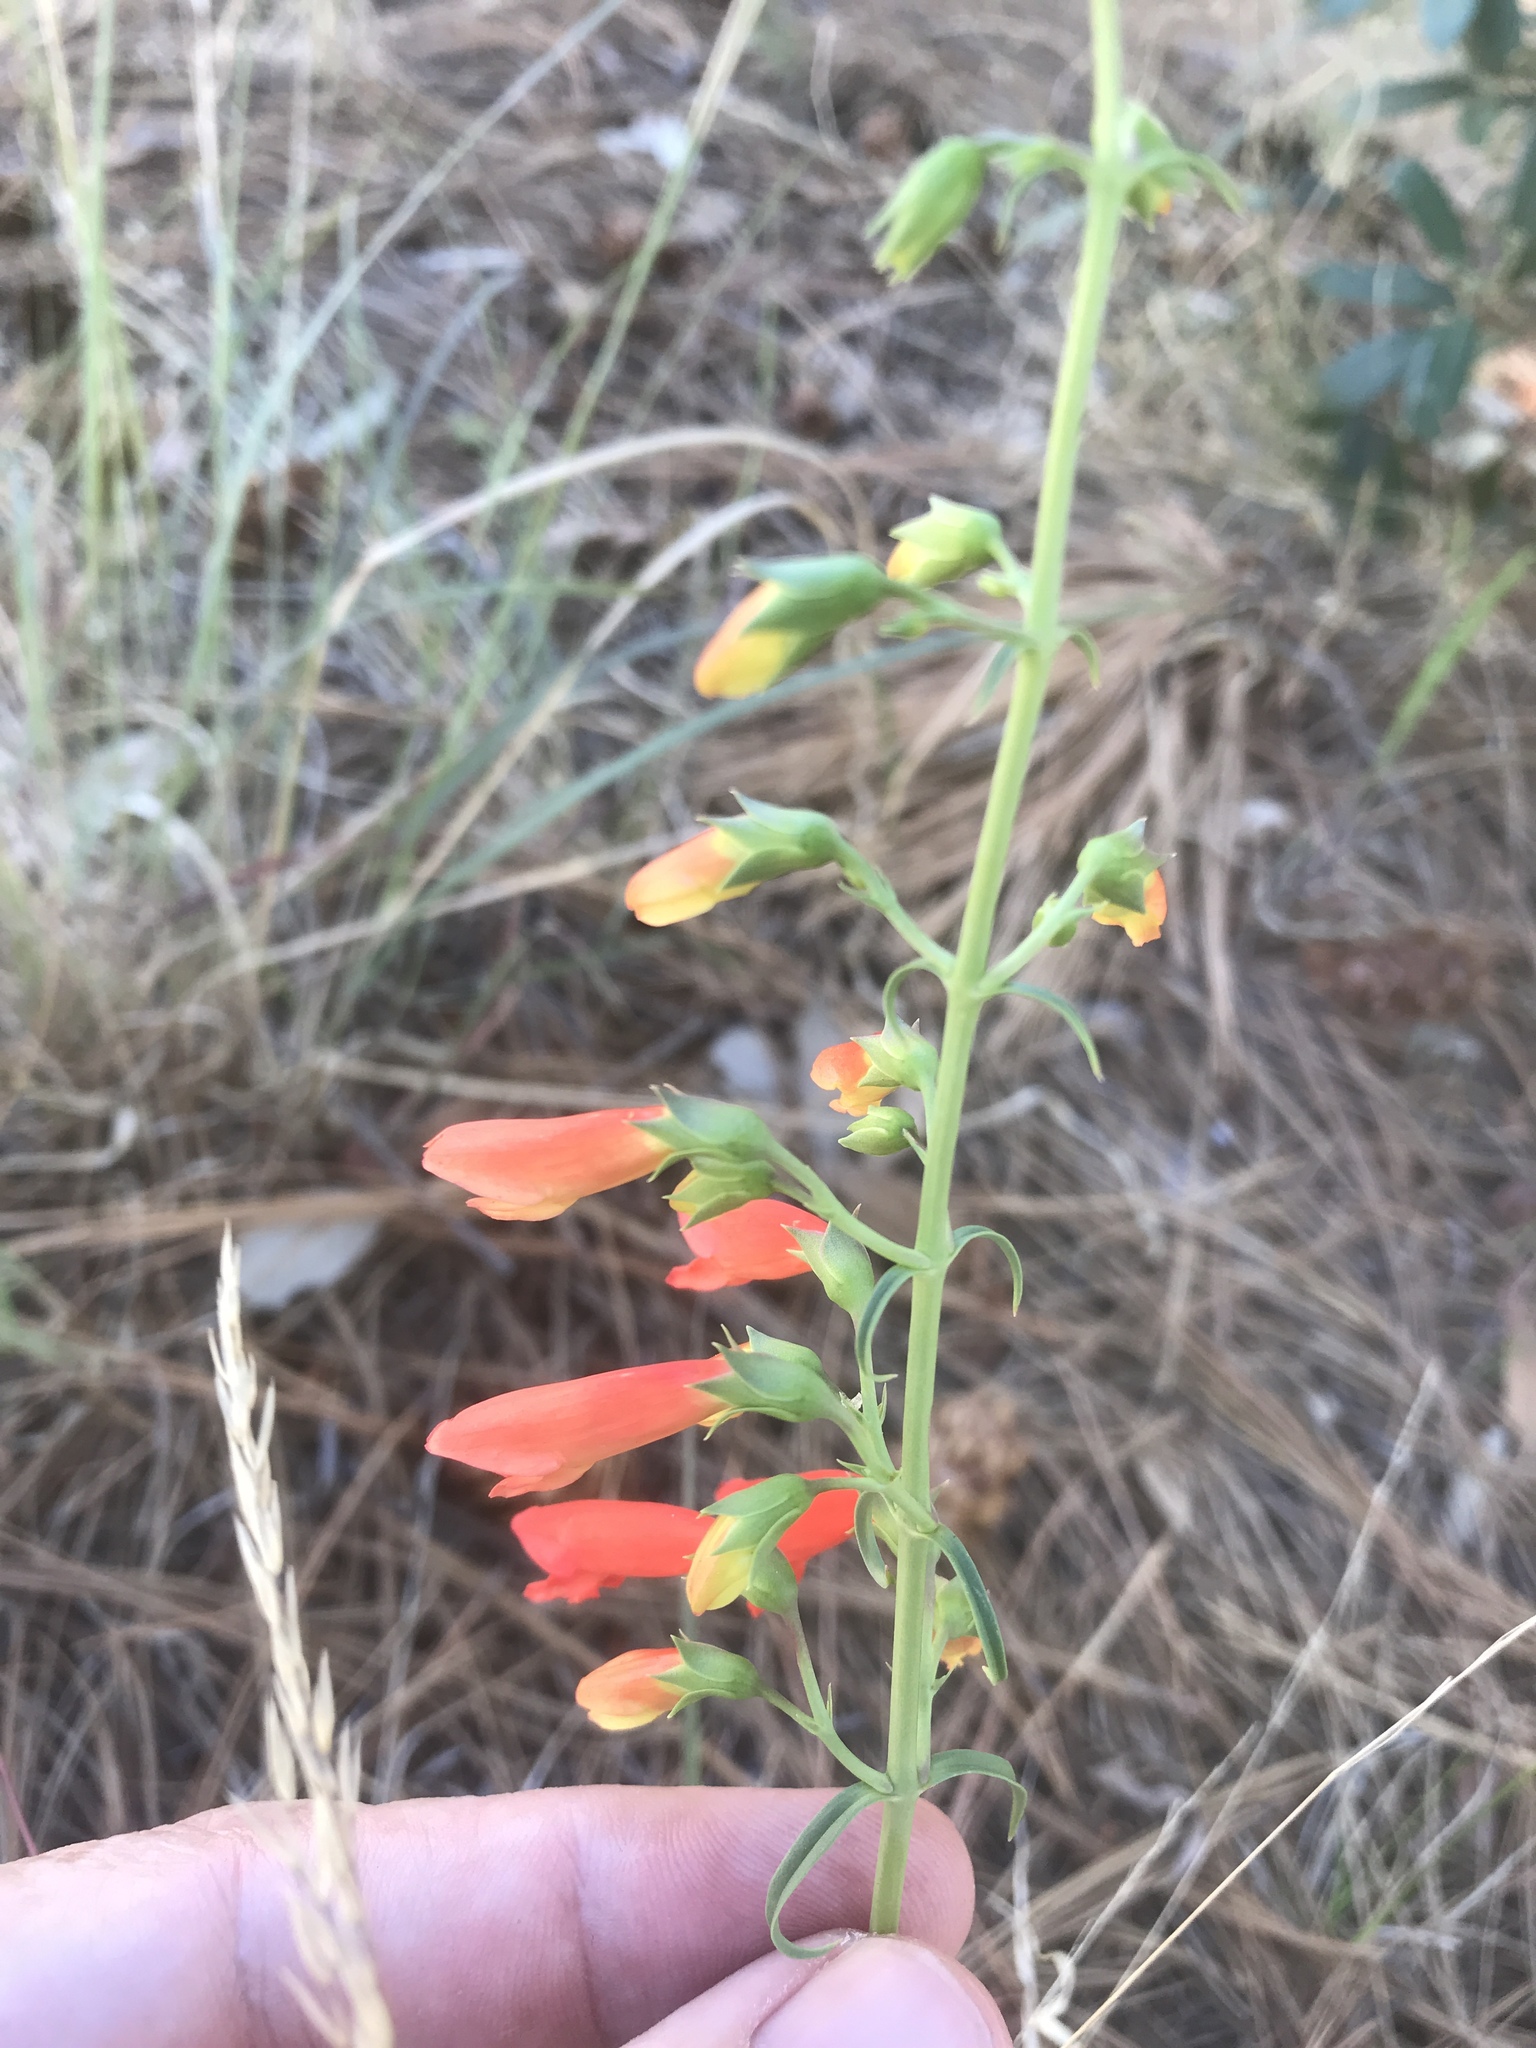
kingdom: Plantae
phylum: Tracheophyta
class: Magnoliopsida
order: Lamiales
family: Plantaginaceae
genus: Penstemon
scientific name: Penstemon barbatus
